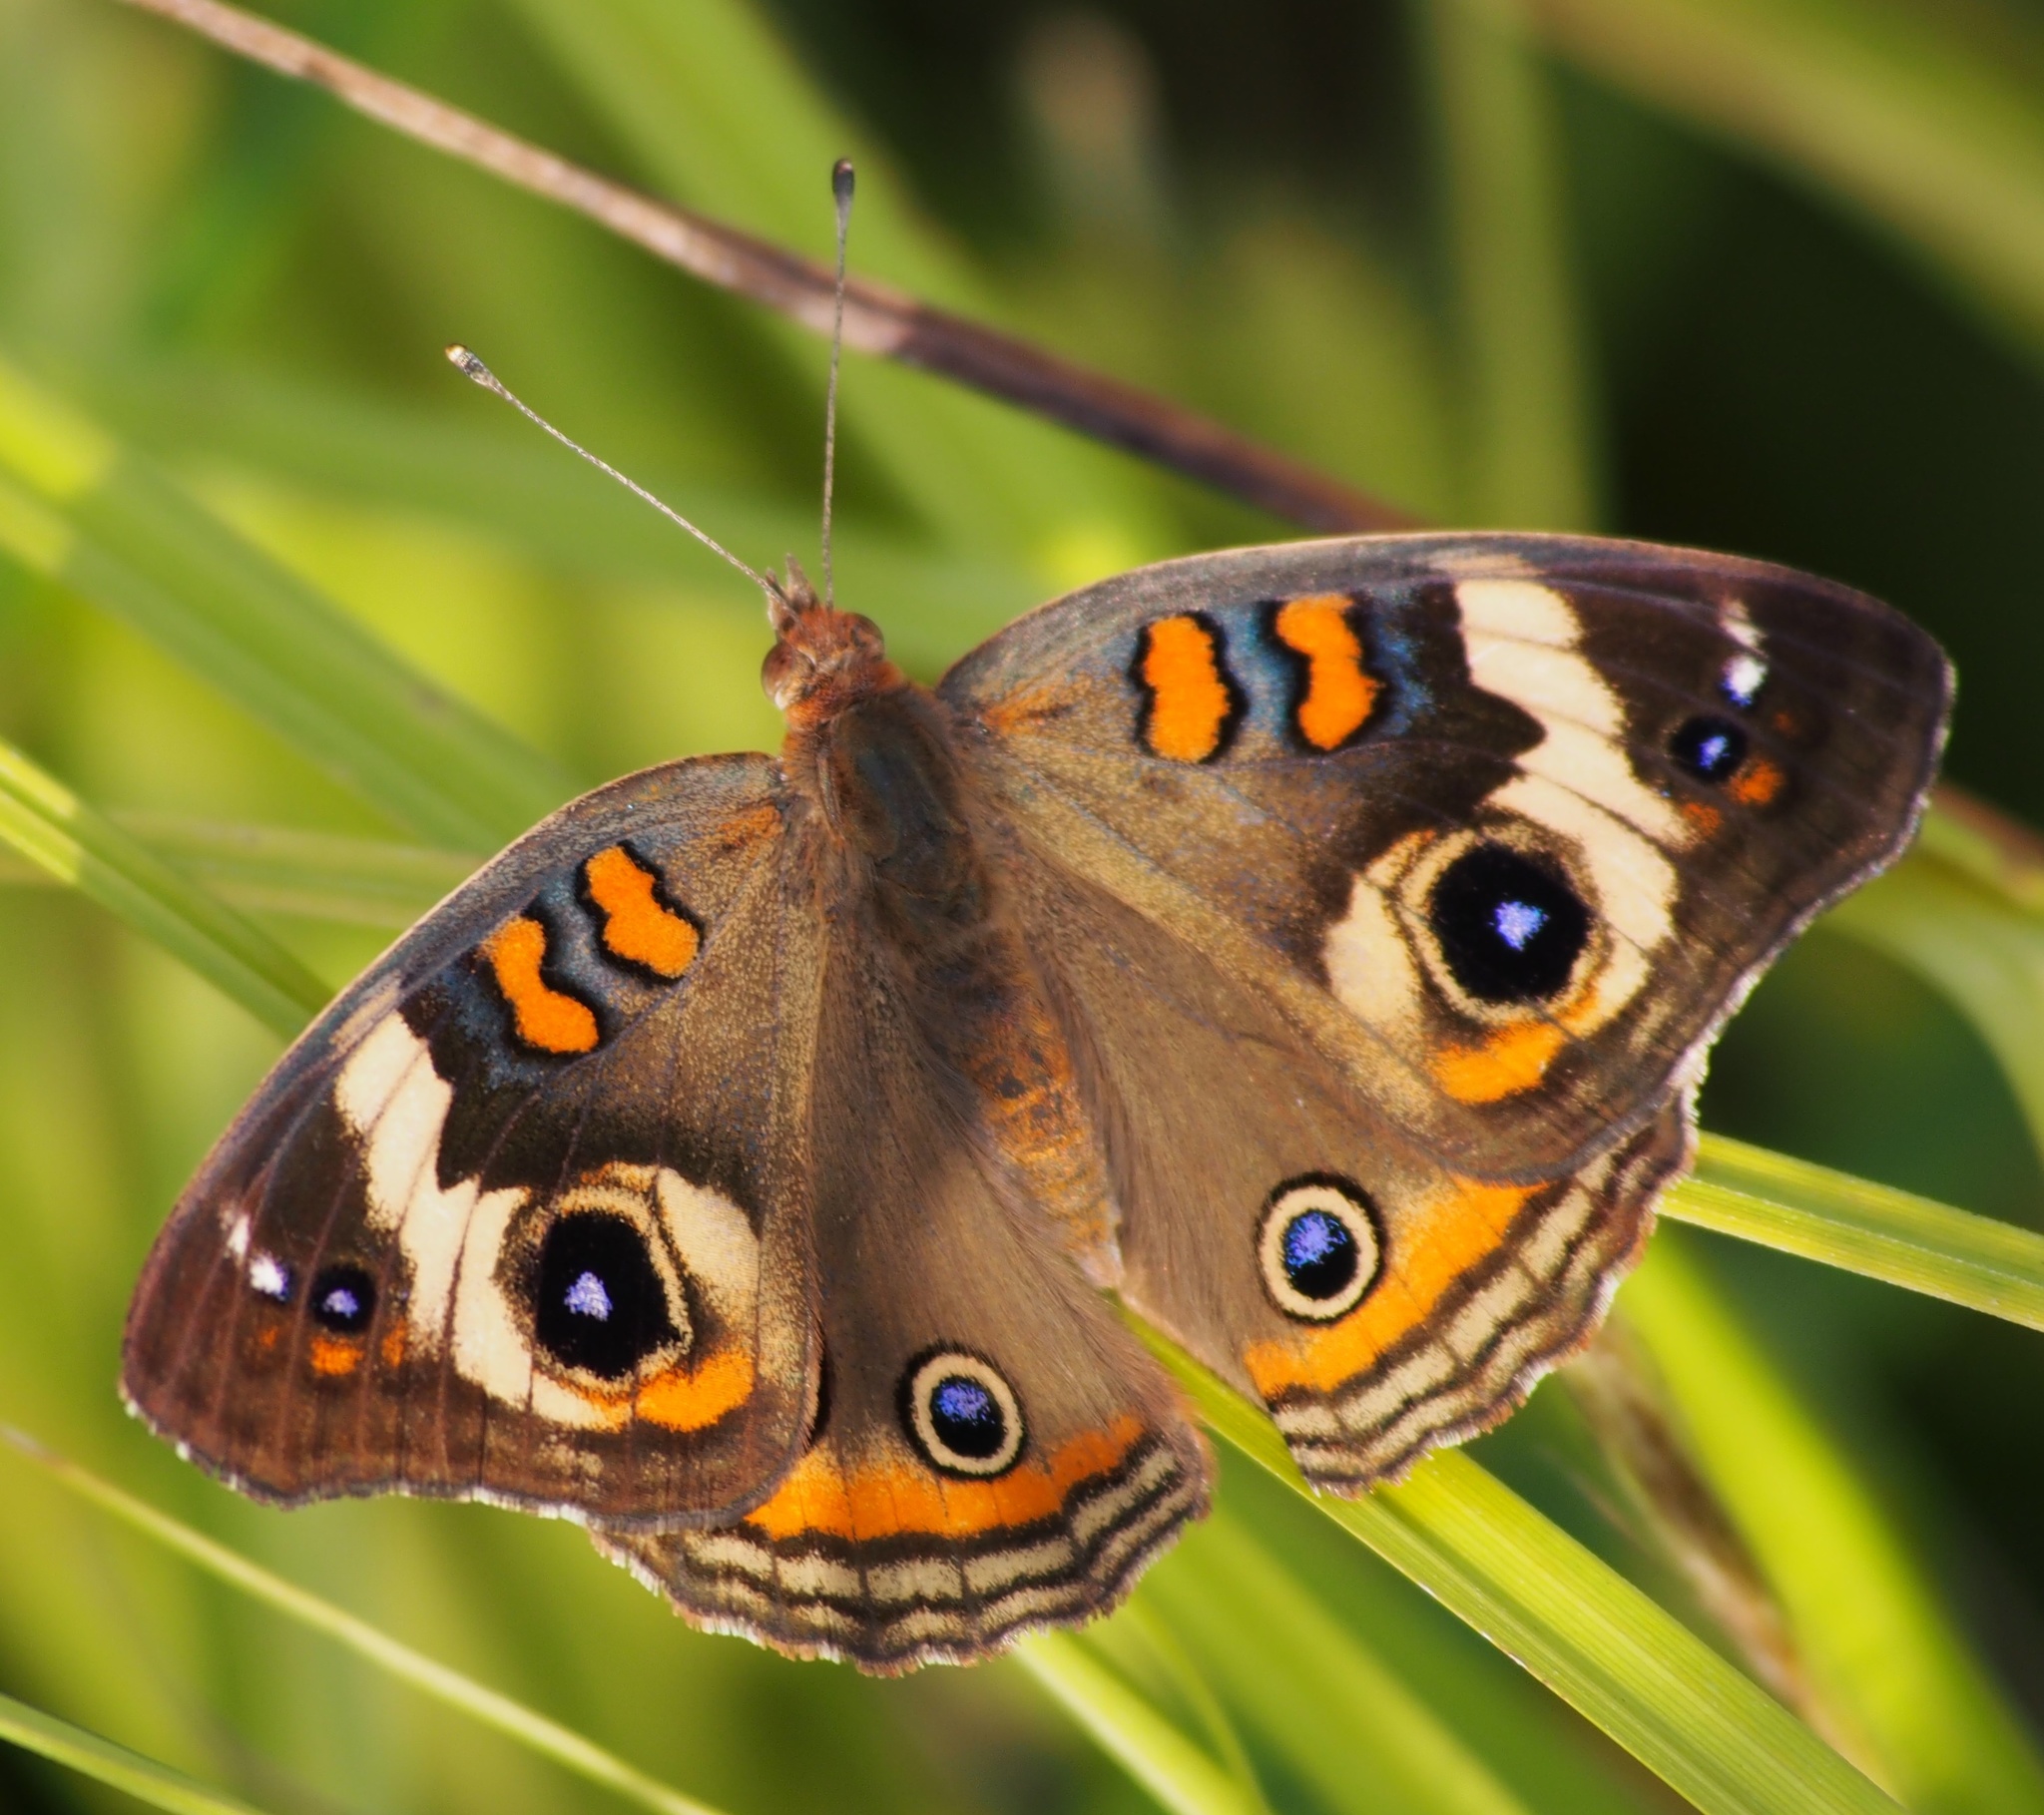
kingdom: Animalia
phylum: Arthropoda
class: Insecta
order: Lepidoptera
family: Nymphalidae
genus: Junonia
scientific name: Junonia coenia
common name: Common buckeye
